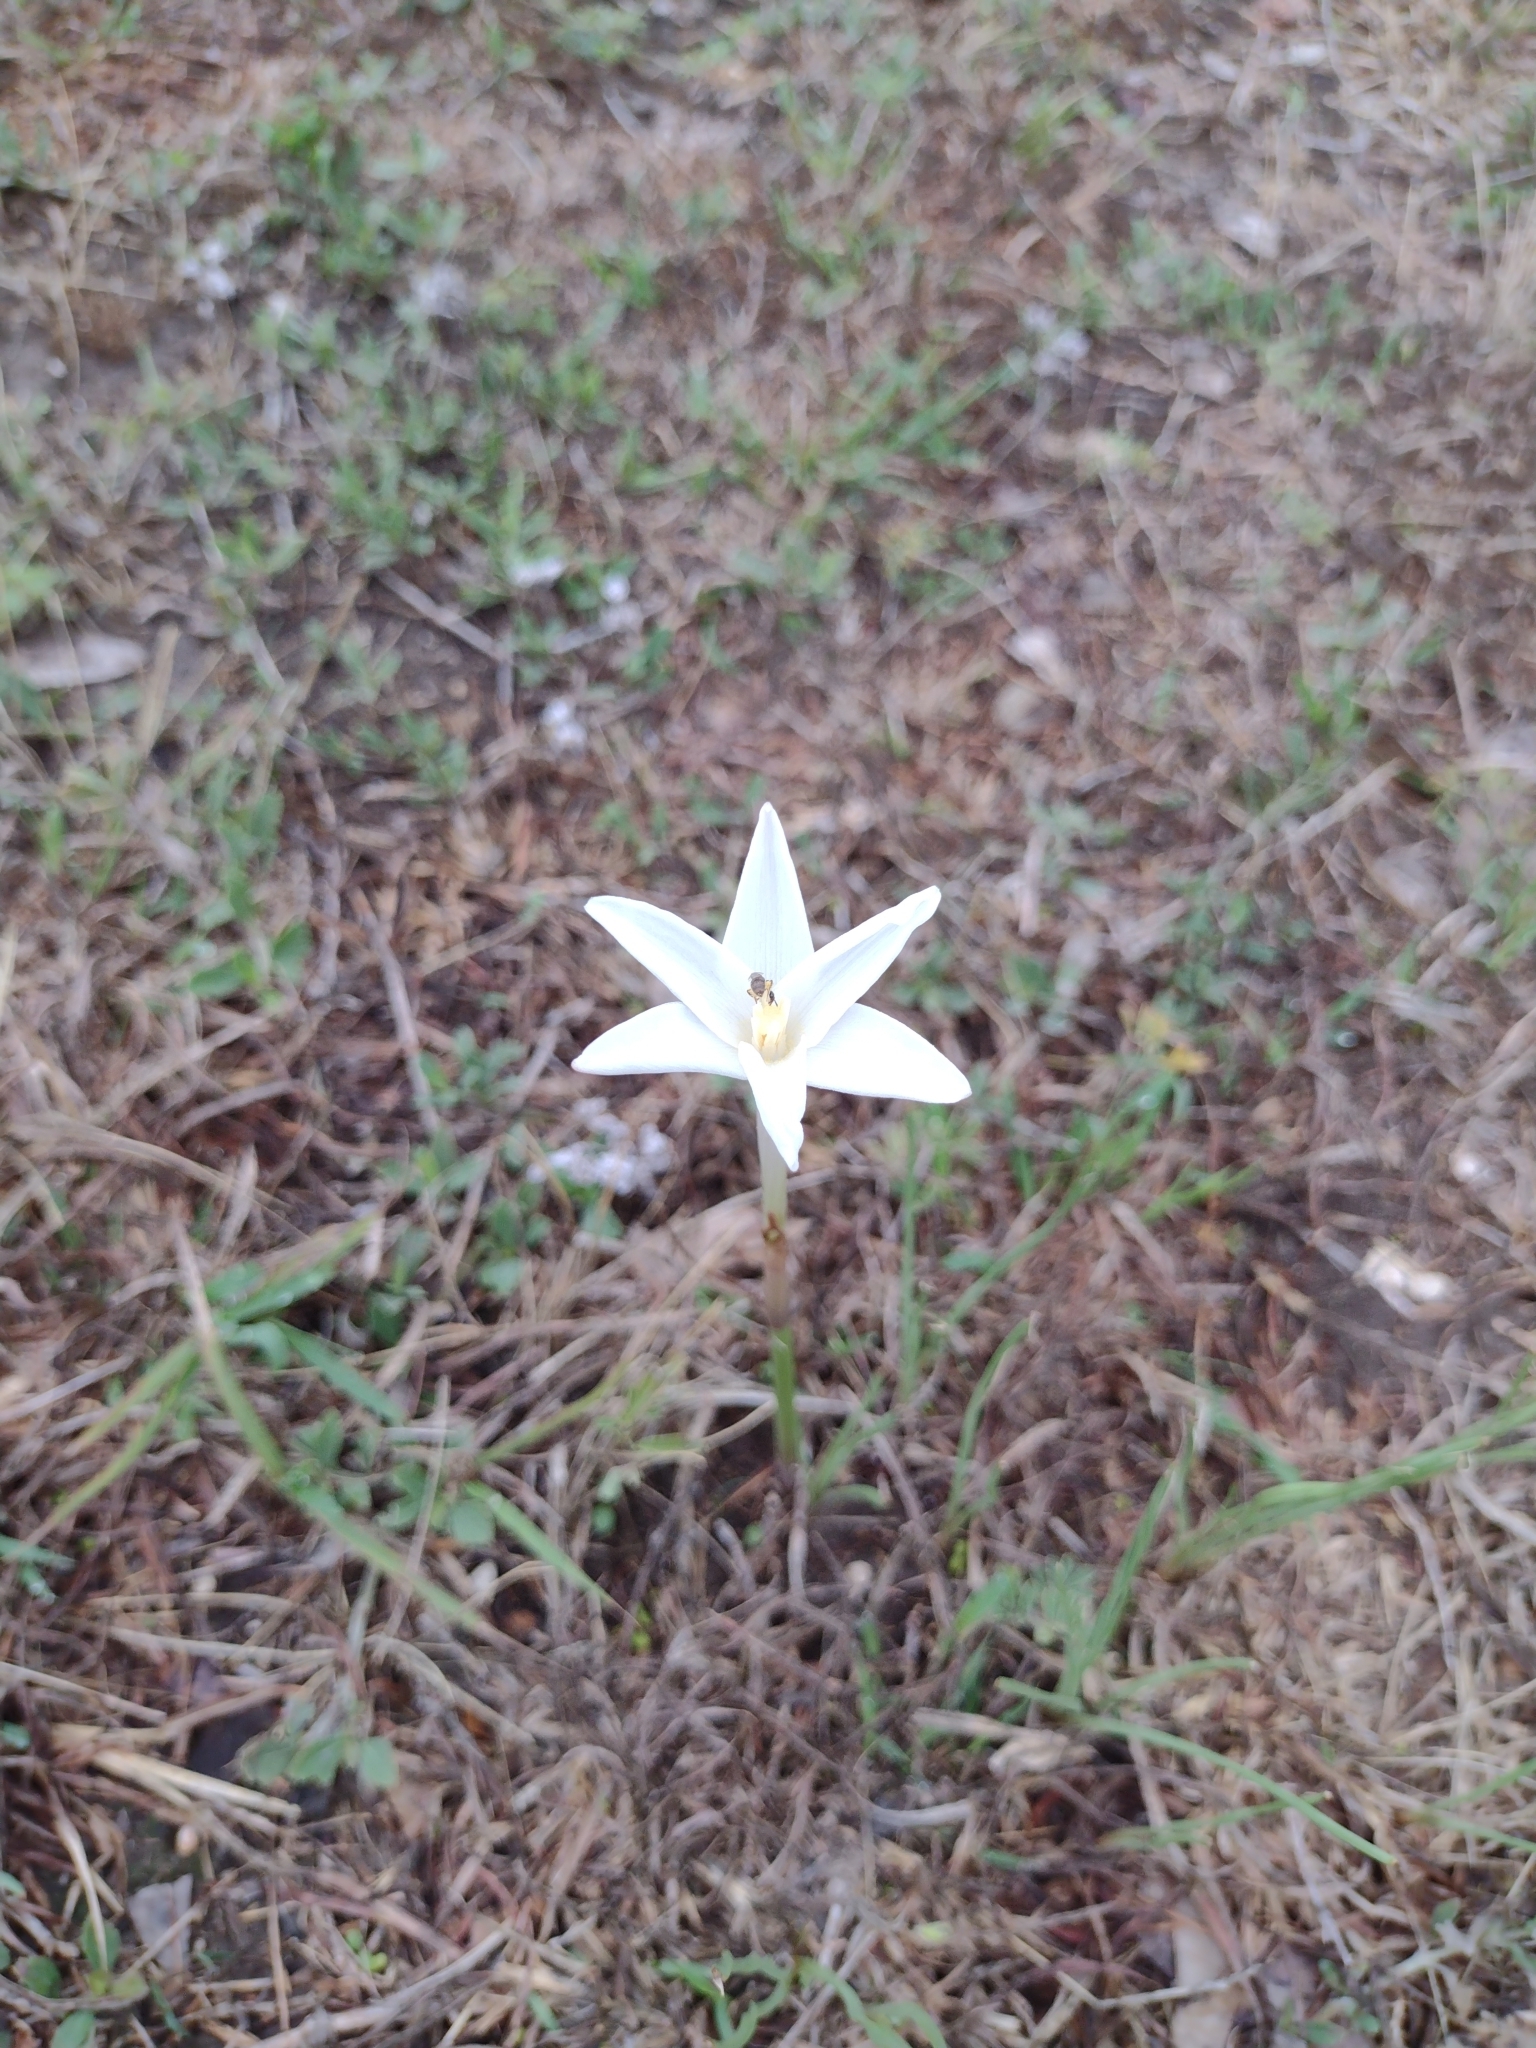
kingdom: Plantae
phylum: Tracheophyta
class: Liliopsida
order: Asparagales
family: Amaryllidaceae
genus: Zephyranthes
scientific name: Zephyranthes chlorosolen
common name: Evening rain-lily
